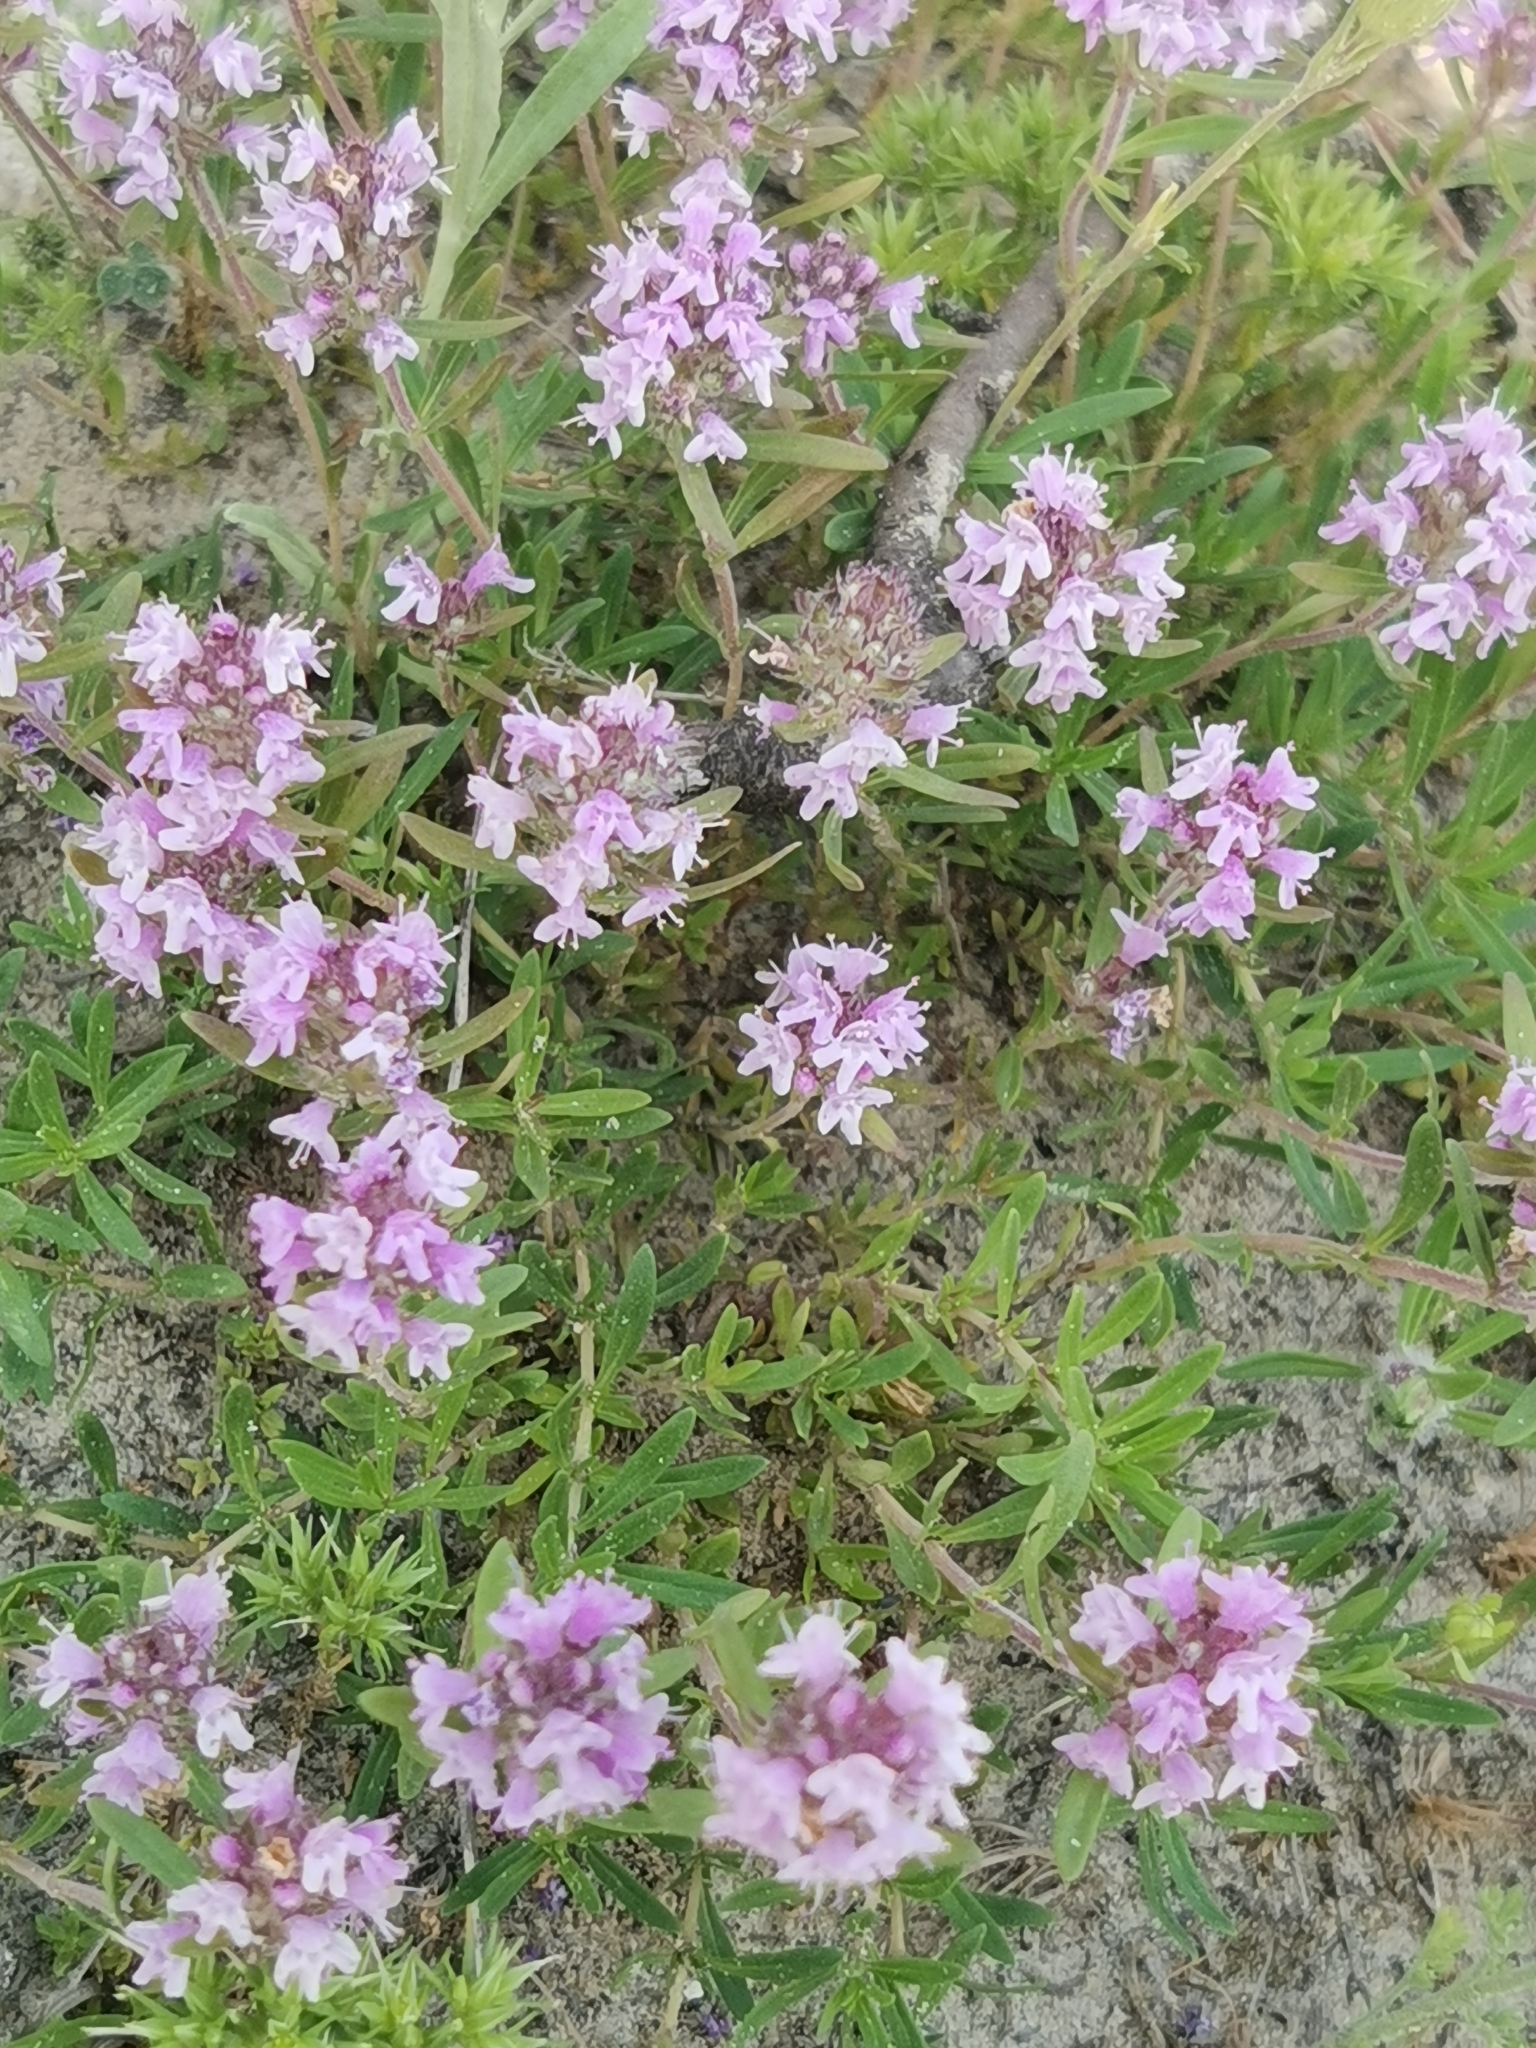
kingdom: Plantae
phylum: Tracheophyta
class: Magnoliopsida
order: Lamiales
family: Lamiaceae
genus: Thymus
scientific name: Thymus pannonicus
